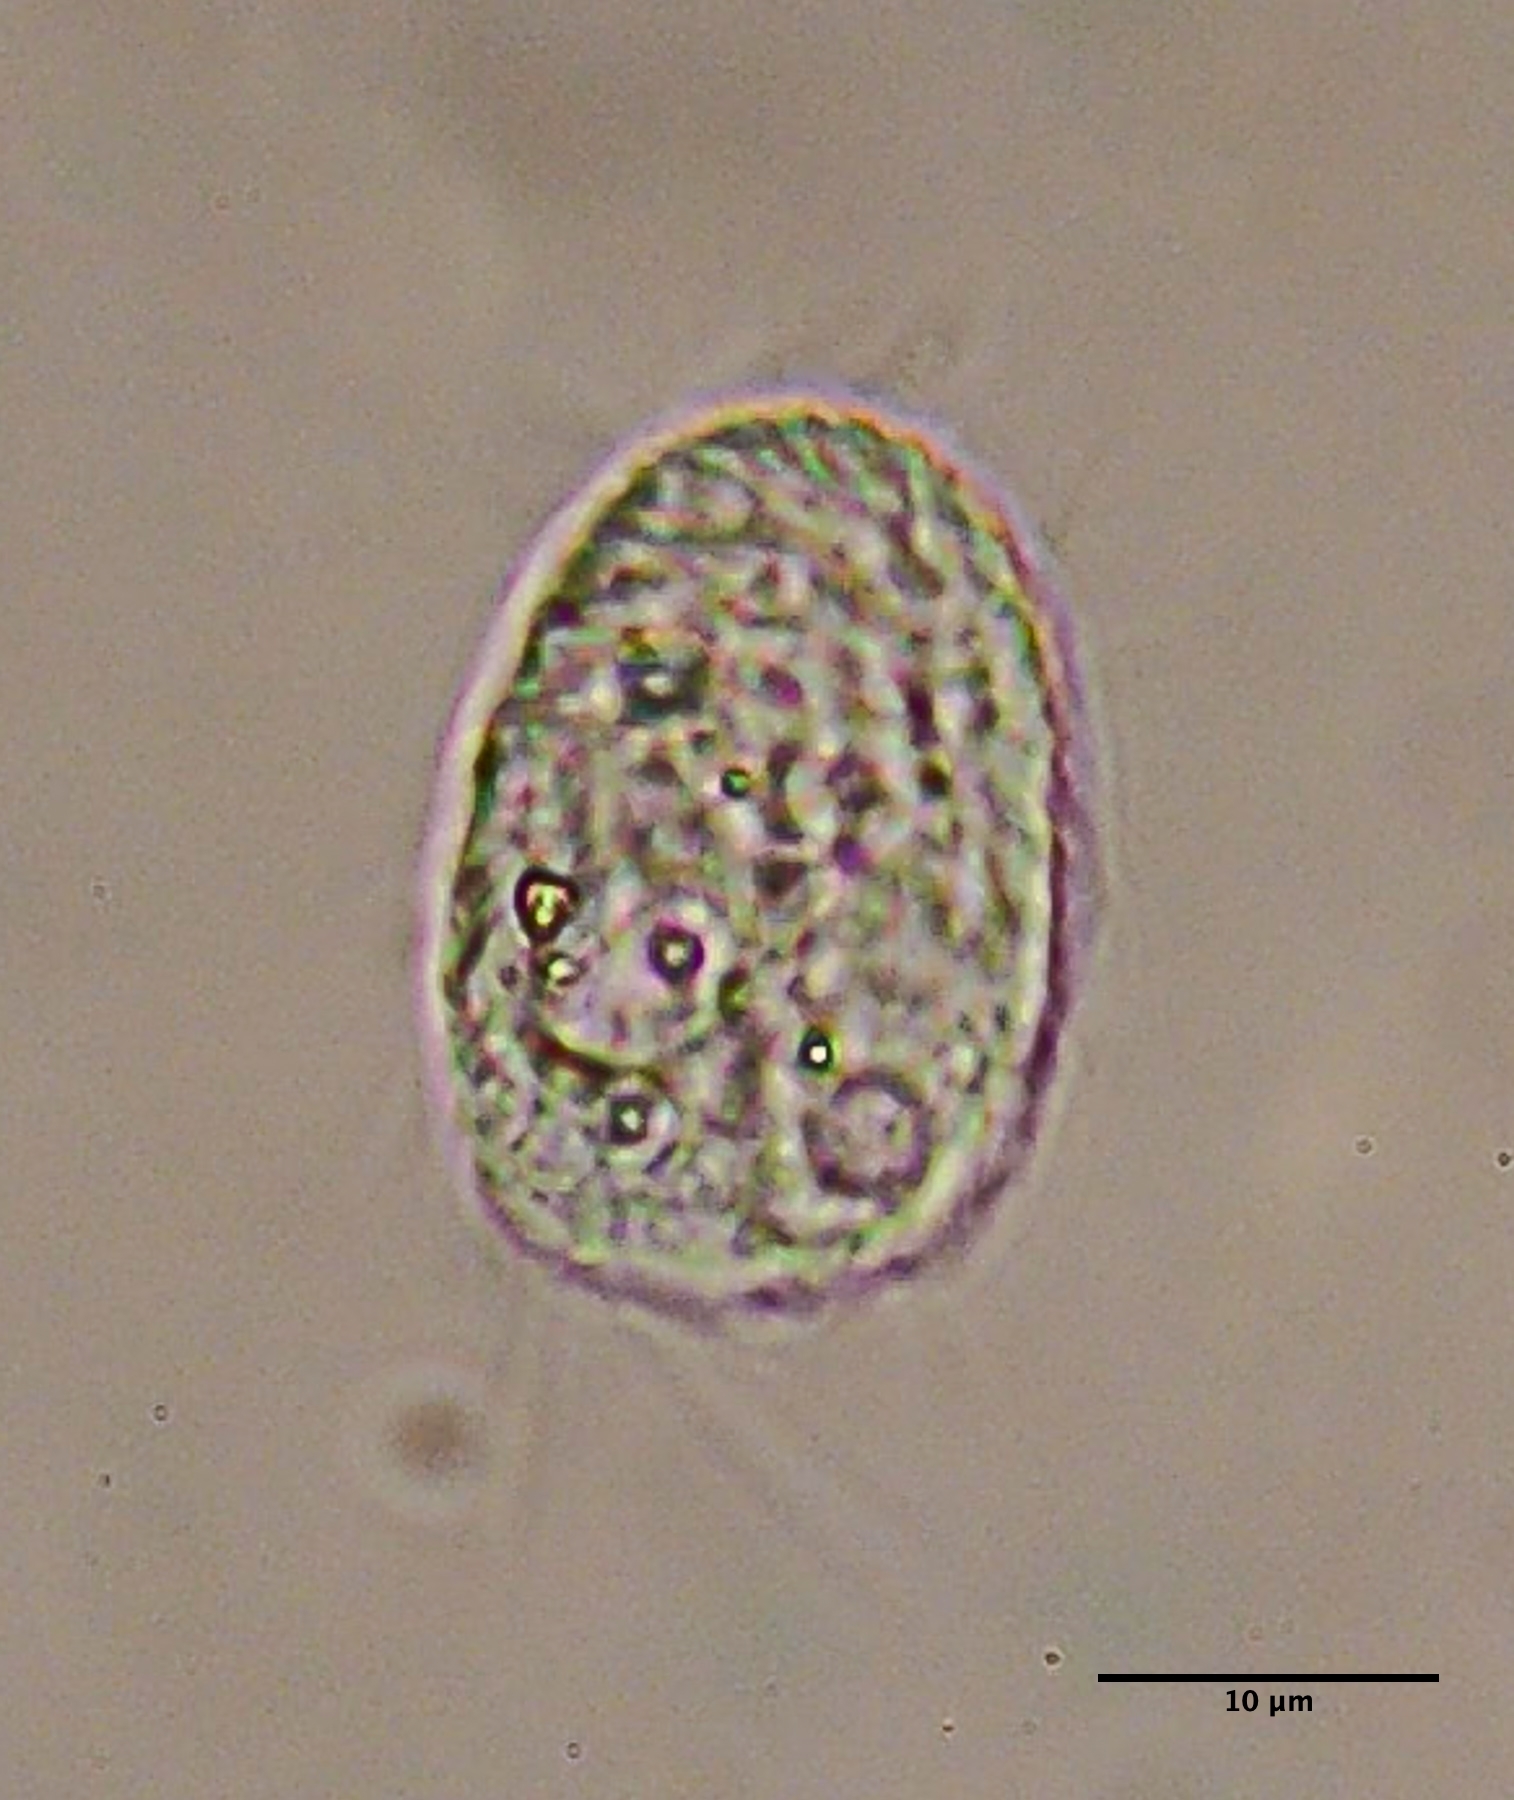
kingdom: Chromista
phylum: Ciliophora
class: Oligohymenophorea
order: Hymenostomatida
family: Cinetochilidae
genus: Cinetochilum
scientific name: Cinetochilum margaritaceum
